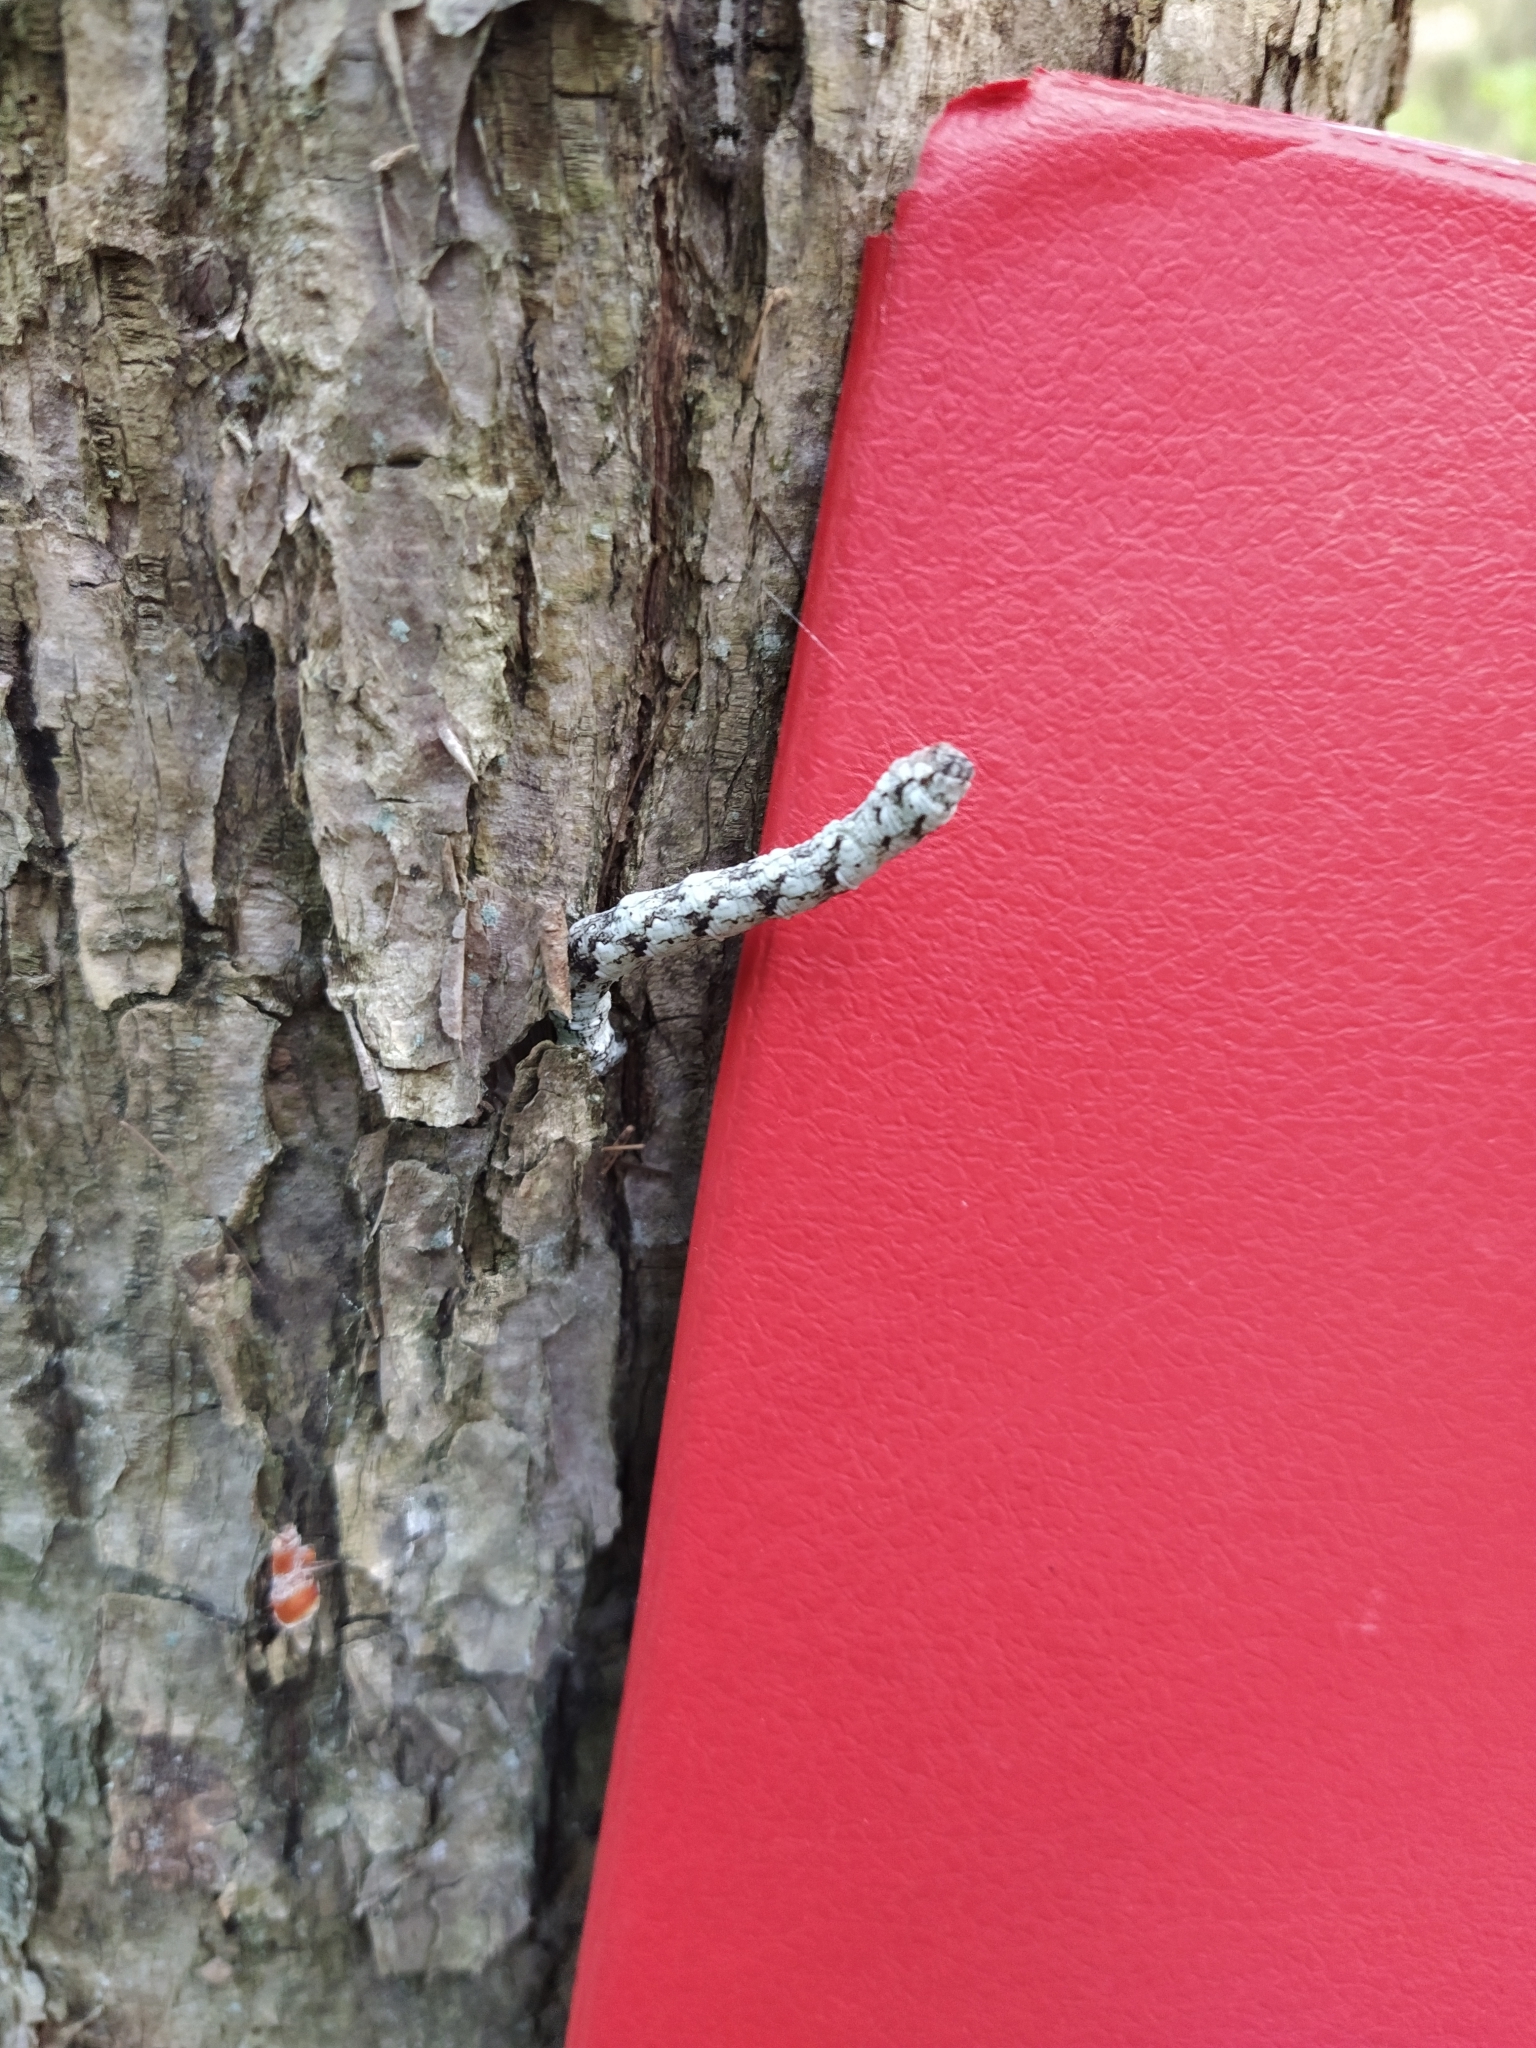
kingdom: Animalia
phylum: Arthropoda
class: Insecta
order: Lepidoptera
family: Geometridae
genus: Odontopera
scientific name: Odontopera bidentata
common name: Scalloped hazel
